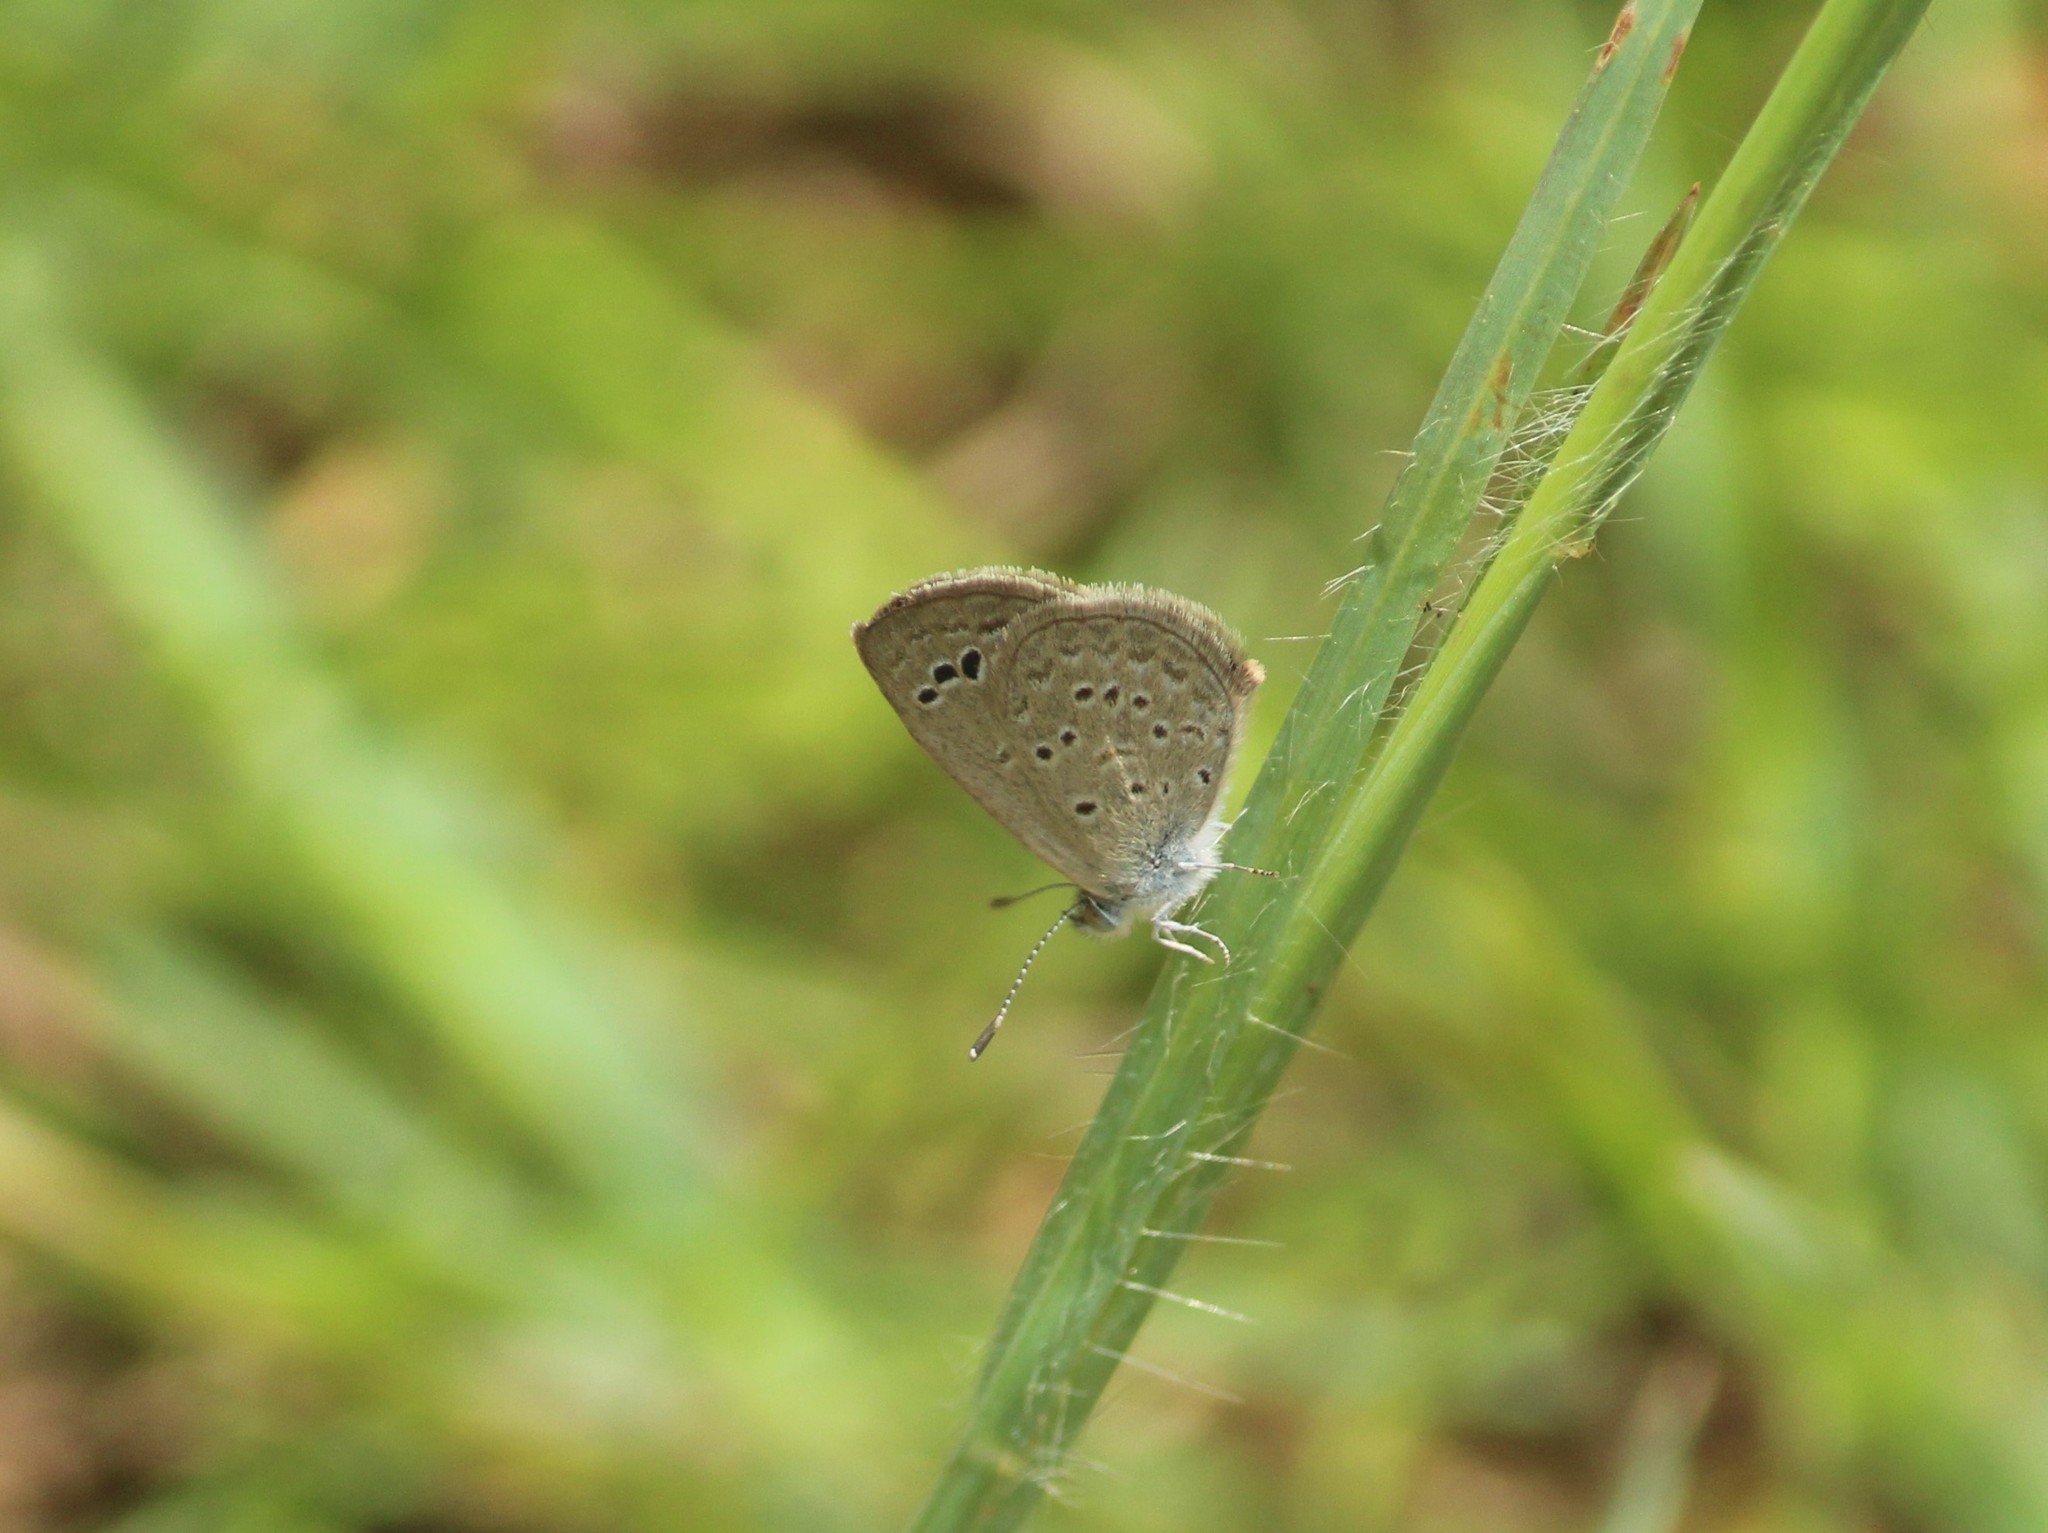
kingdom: Animalia
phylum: Arthropoda
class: Insecta
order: Lepidoptera
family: Lycaenidae
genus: Zizina
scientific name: Zizina otis
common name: Lesser grass blue
